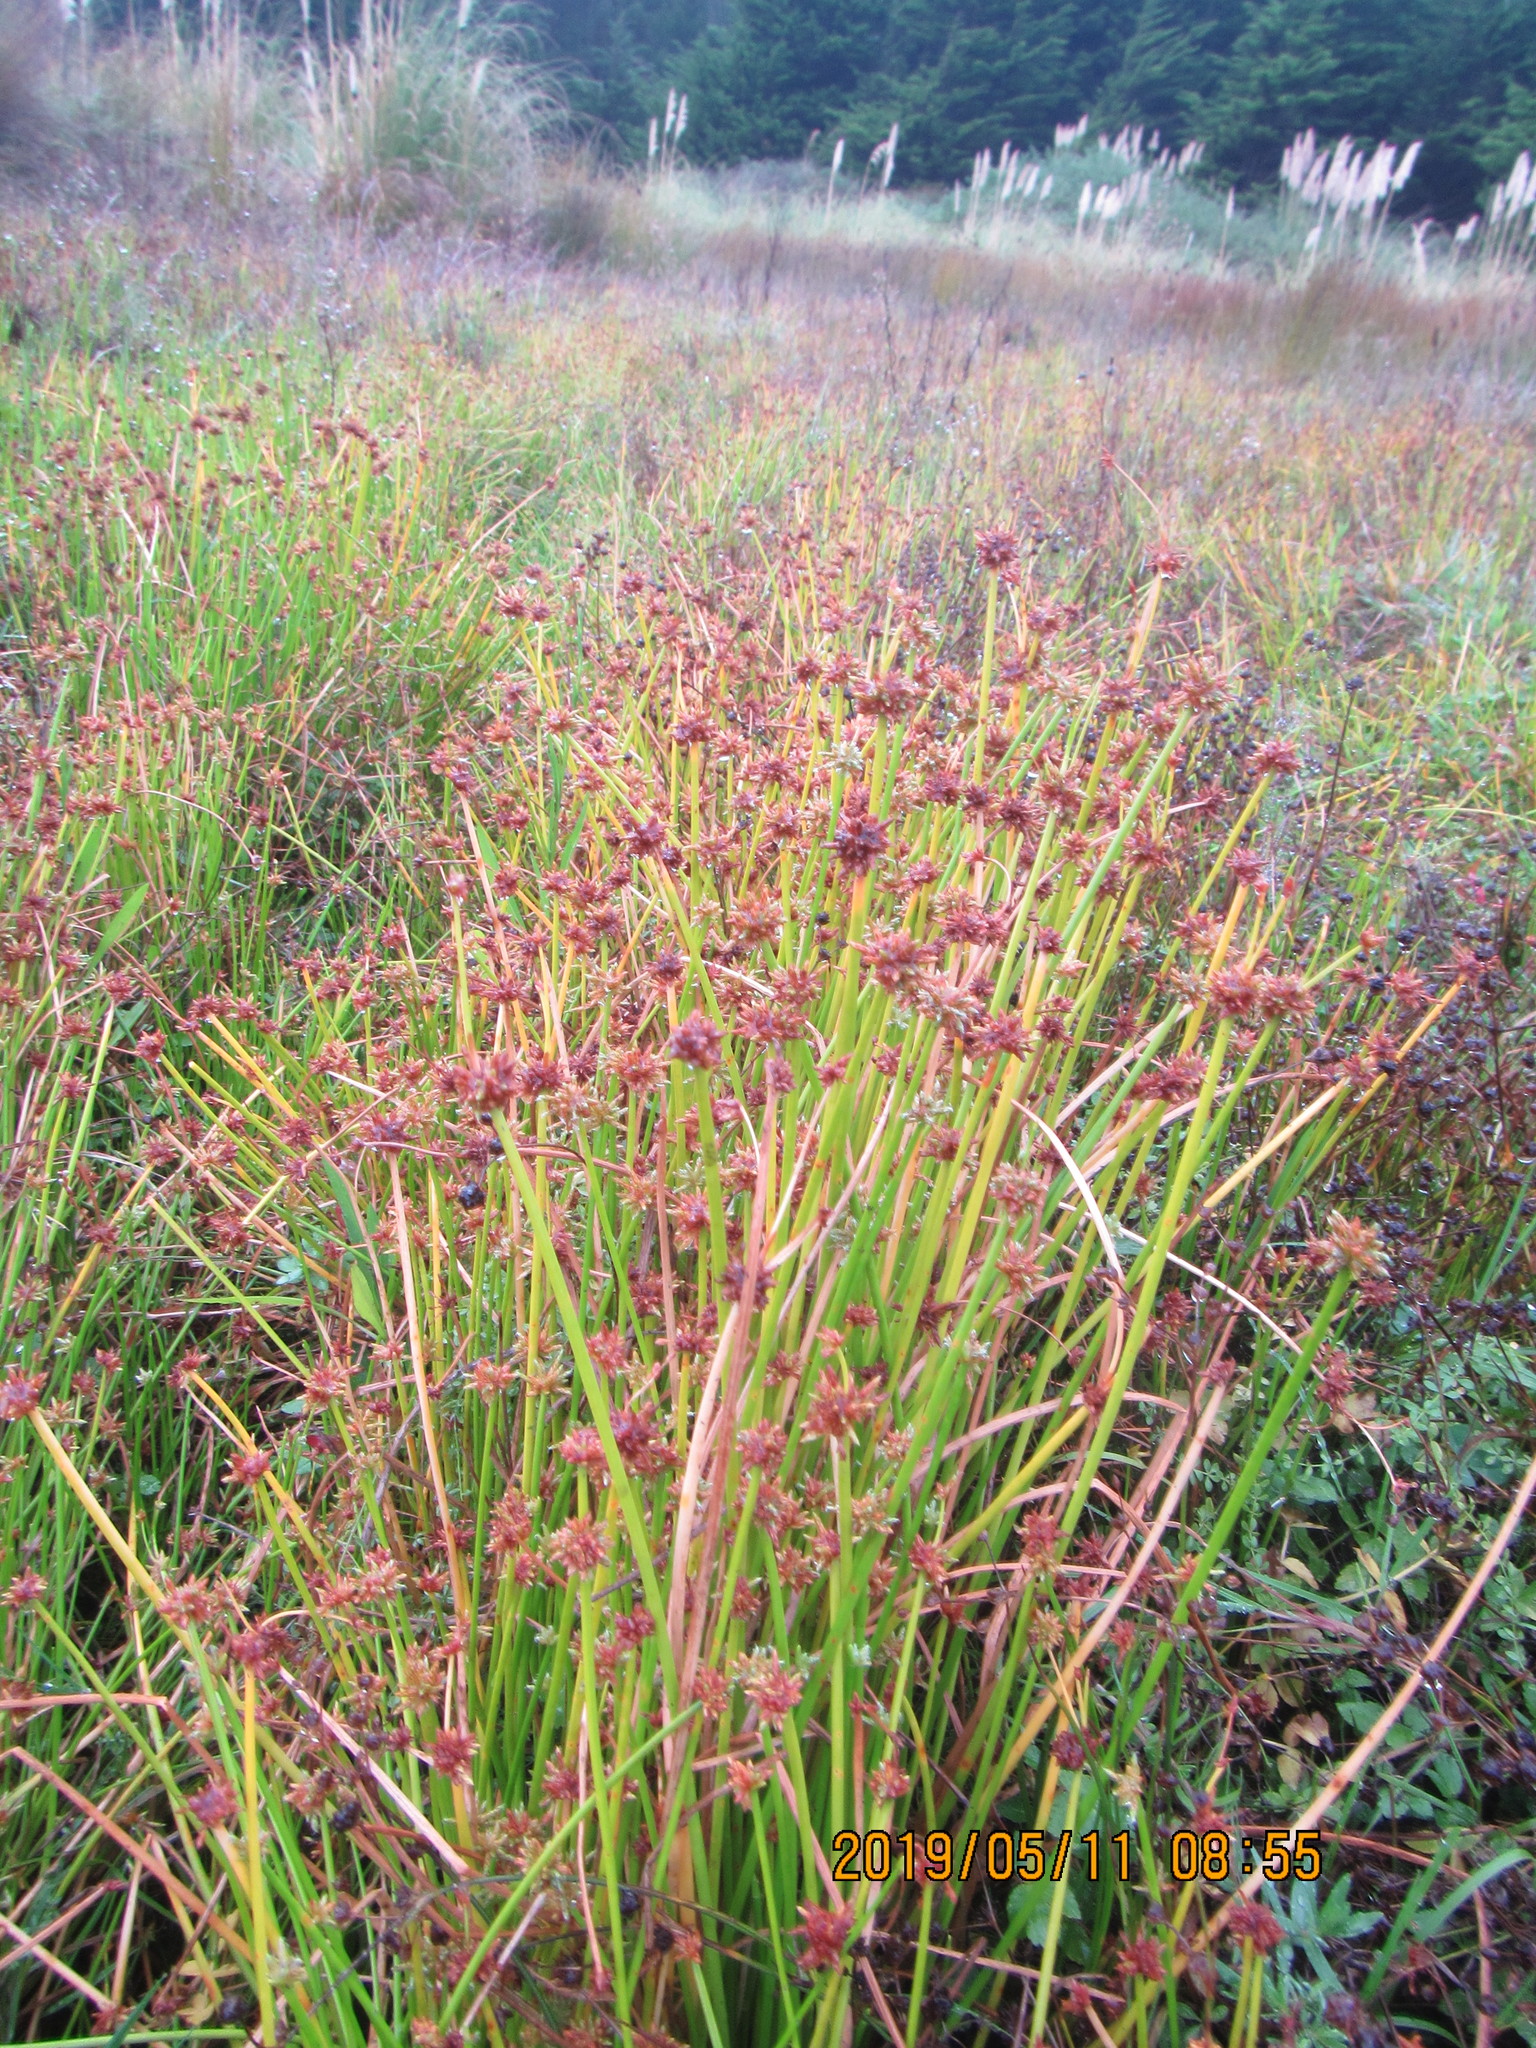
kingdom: Plantae
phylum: Tracheophyta
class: Liliopsida
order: Poales
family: Cyperaceae
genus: Isolepis
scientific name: Isolepis distigmatosa
